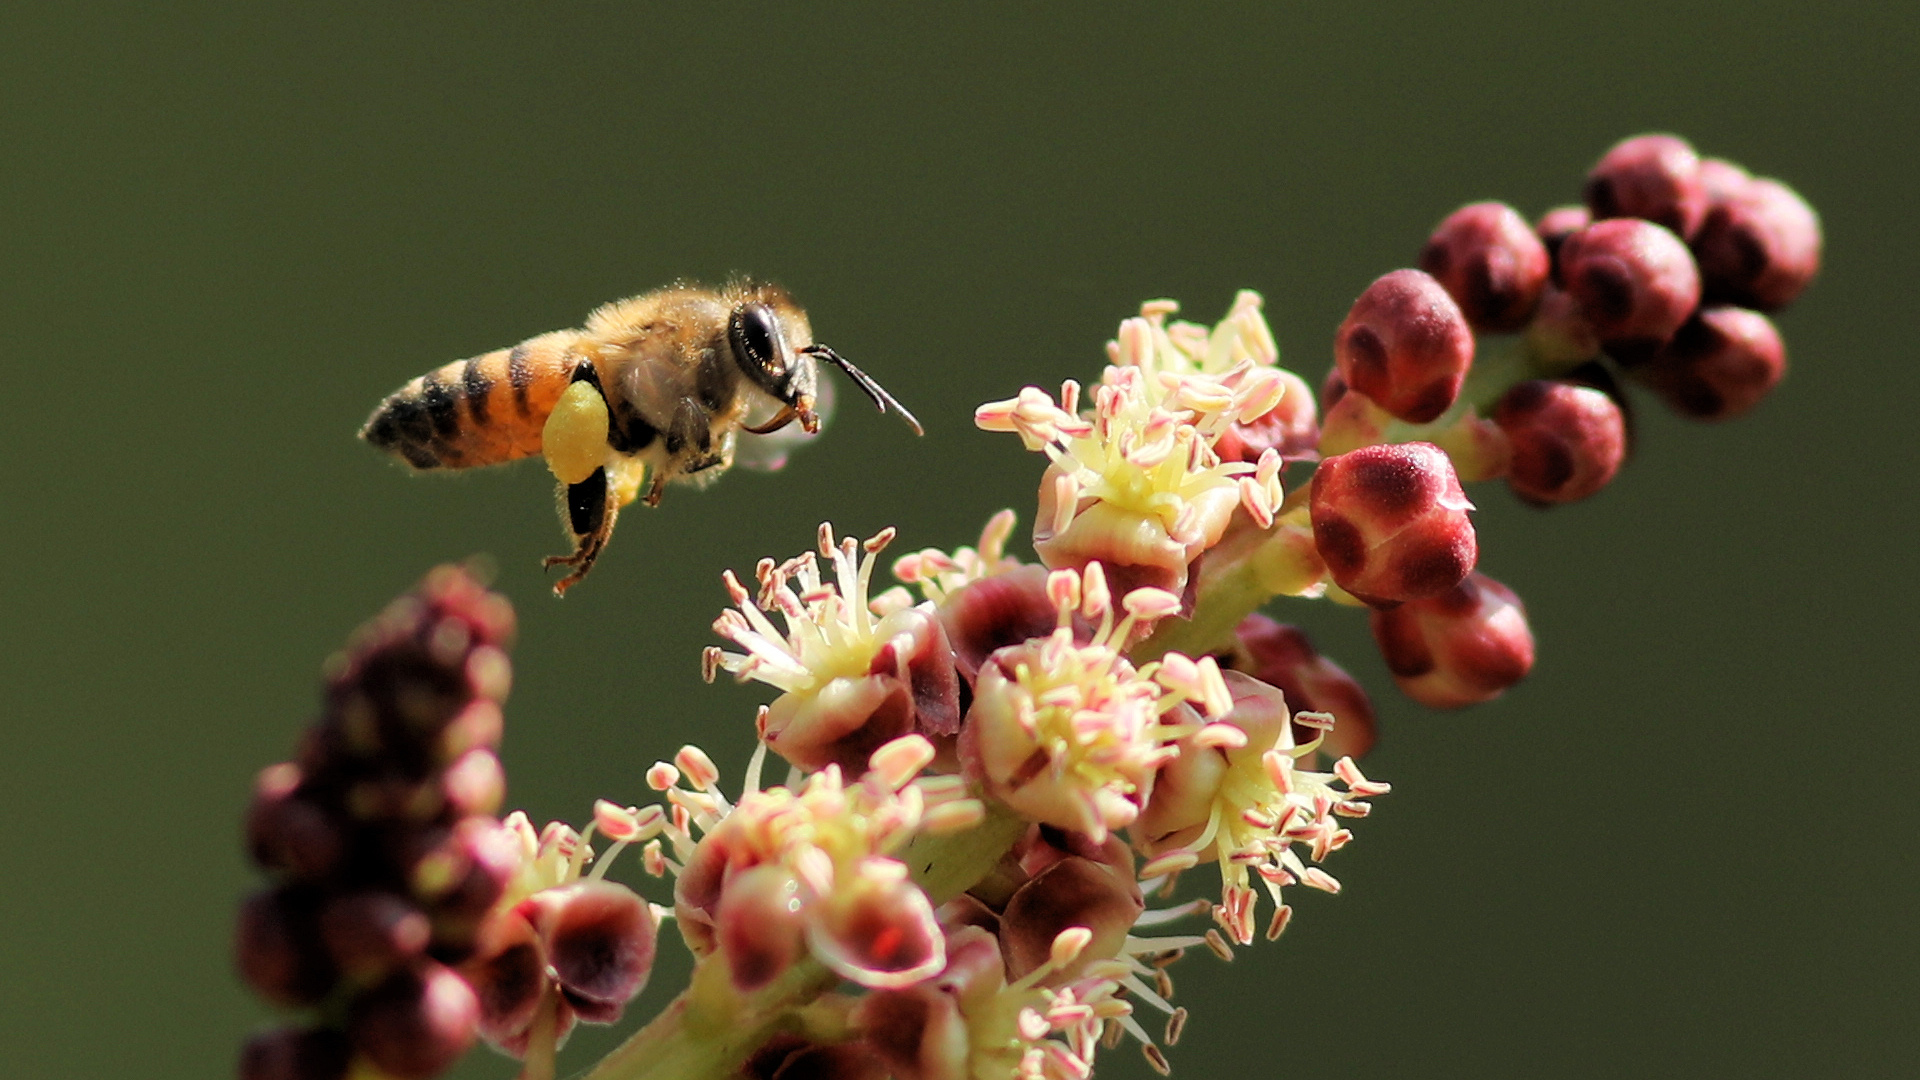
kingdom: Animalia
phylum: Arthropoda
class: Insecta
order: Hymenoptera
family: Apidae
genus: Apis
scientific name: Apis mellifera
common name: Honey bee
